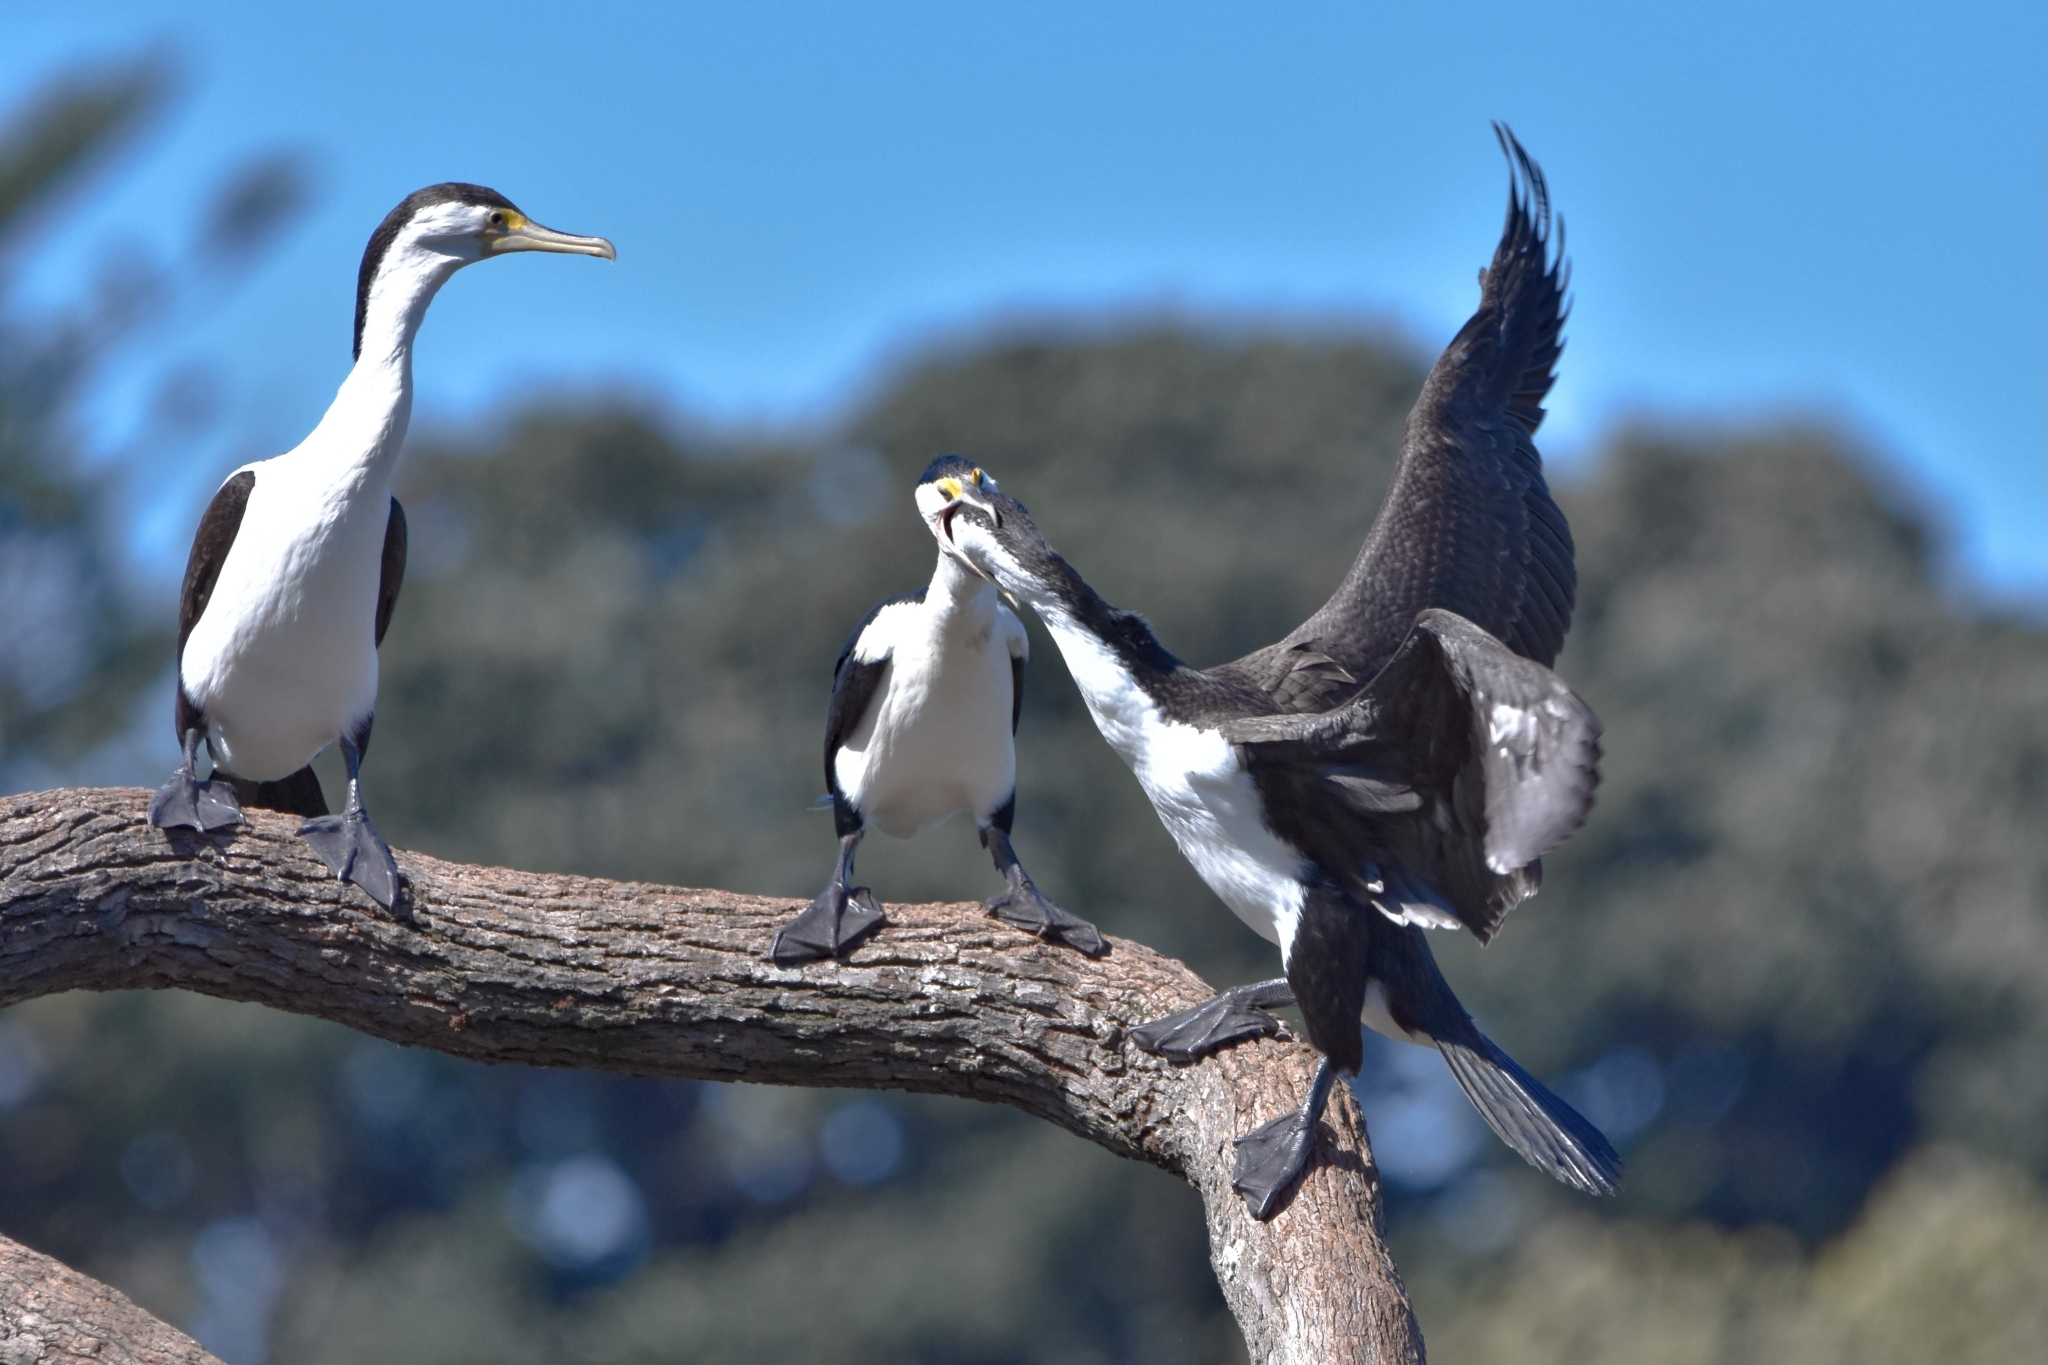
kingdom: Animalia
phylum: Chordata
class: Aves
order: Suliformes
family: Phalacrocoracidae
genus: Phalacrocorax
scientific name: Phalacrocorax varius
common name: Pied cormorant
